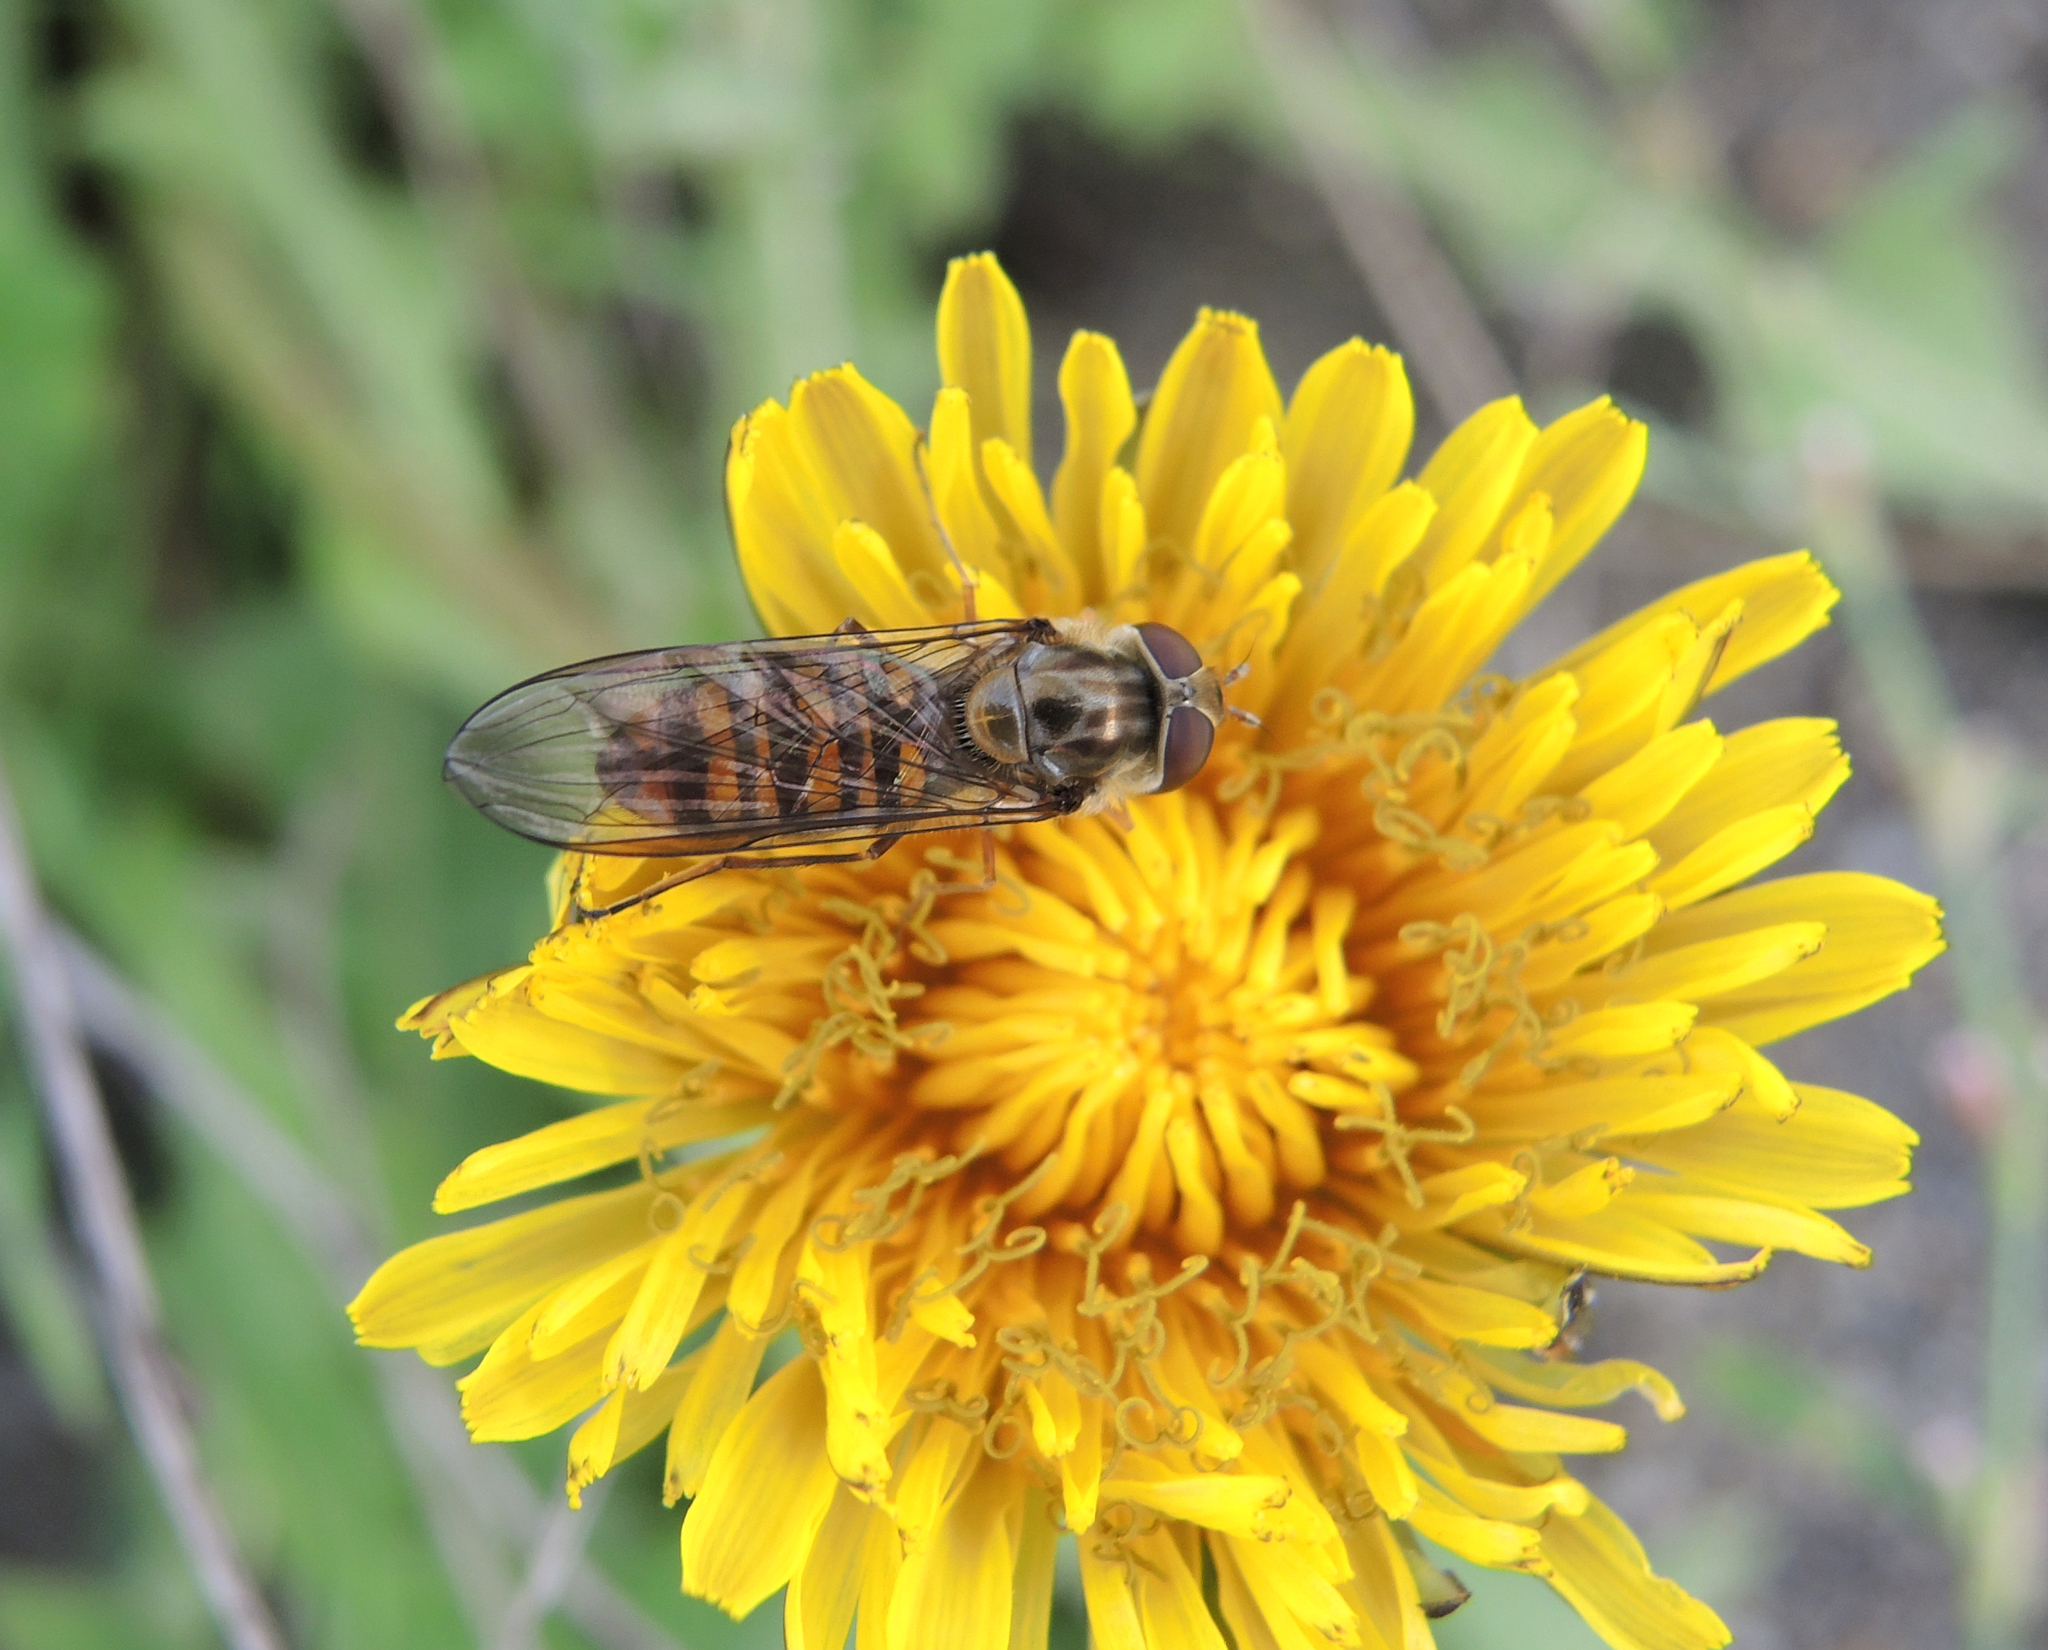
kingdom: Animalia
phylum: Arthropoda
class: Insecta
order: Diptera
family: Syrphidae
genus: Episyrphus
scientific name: Episyrphus balteatus
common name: Marmalade hoverfly
